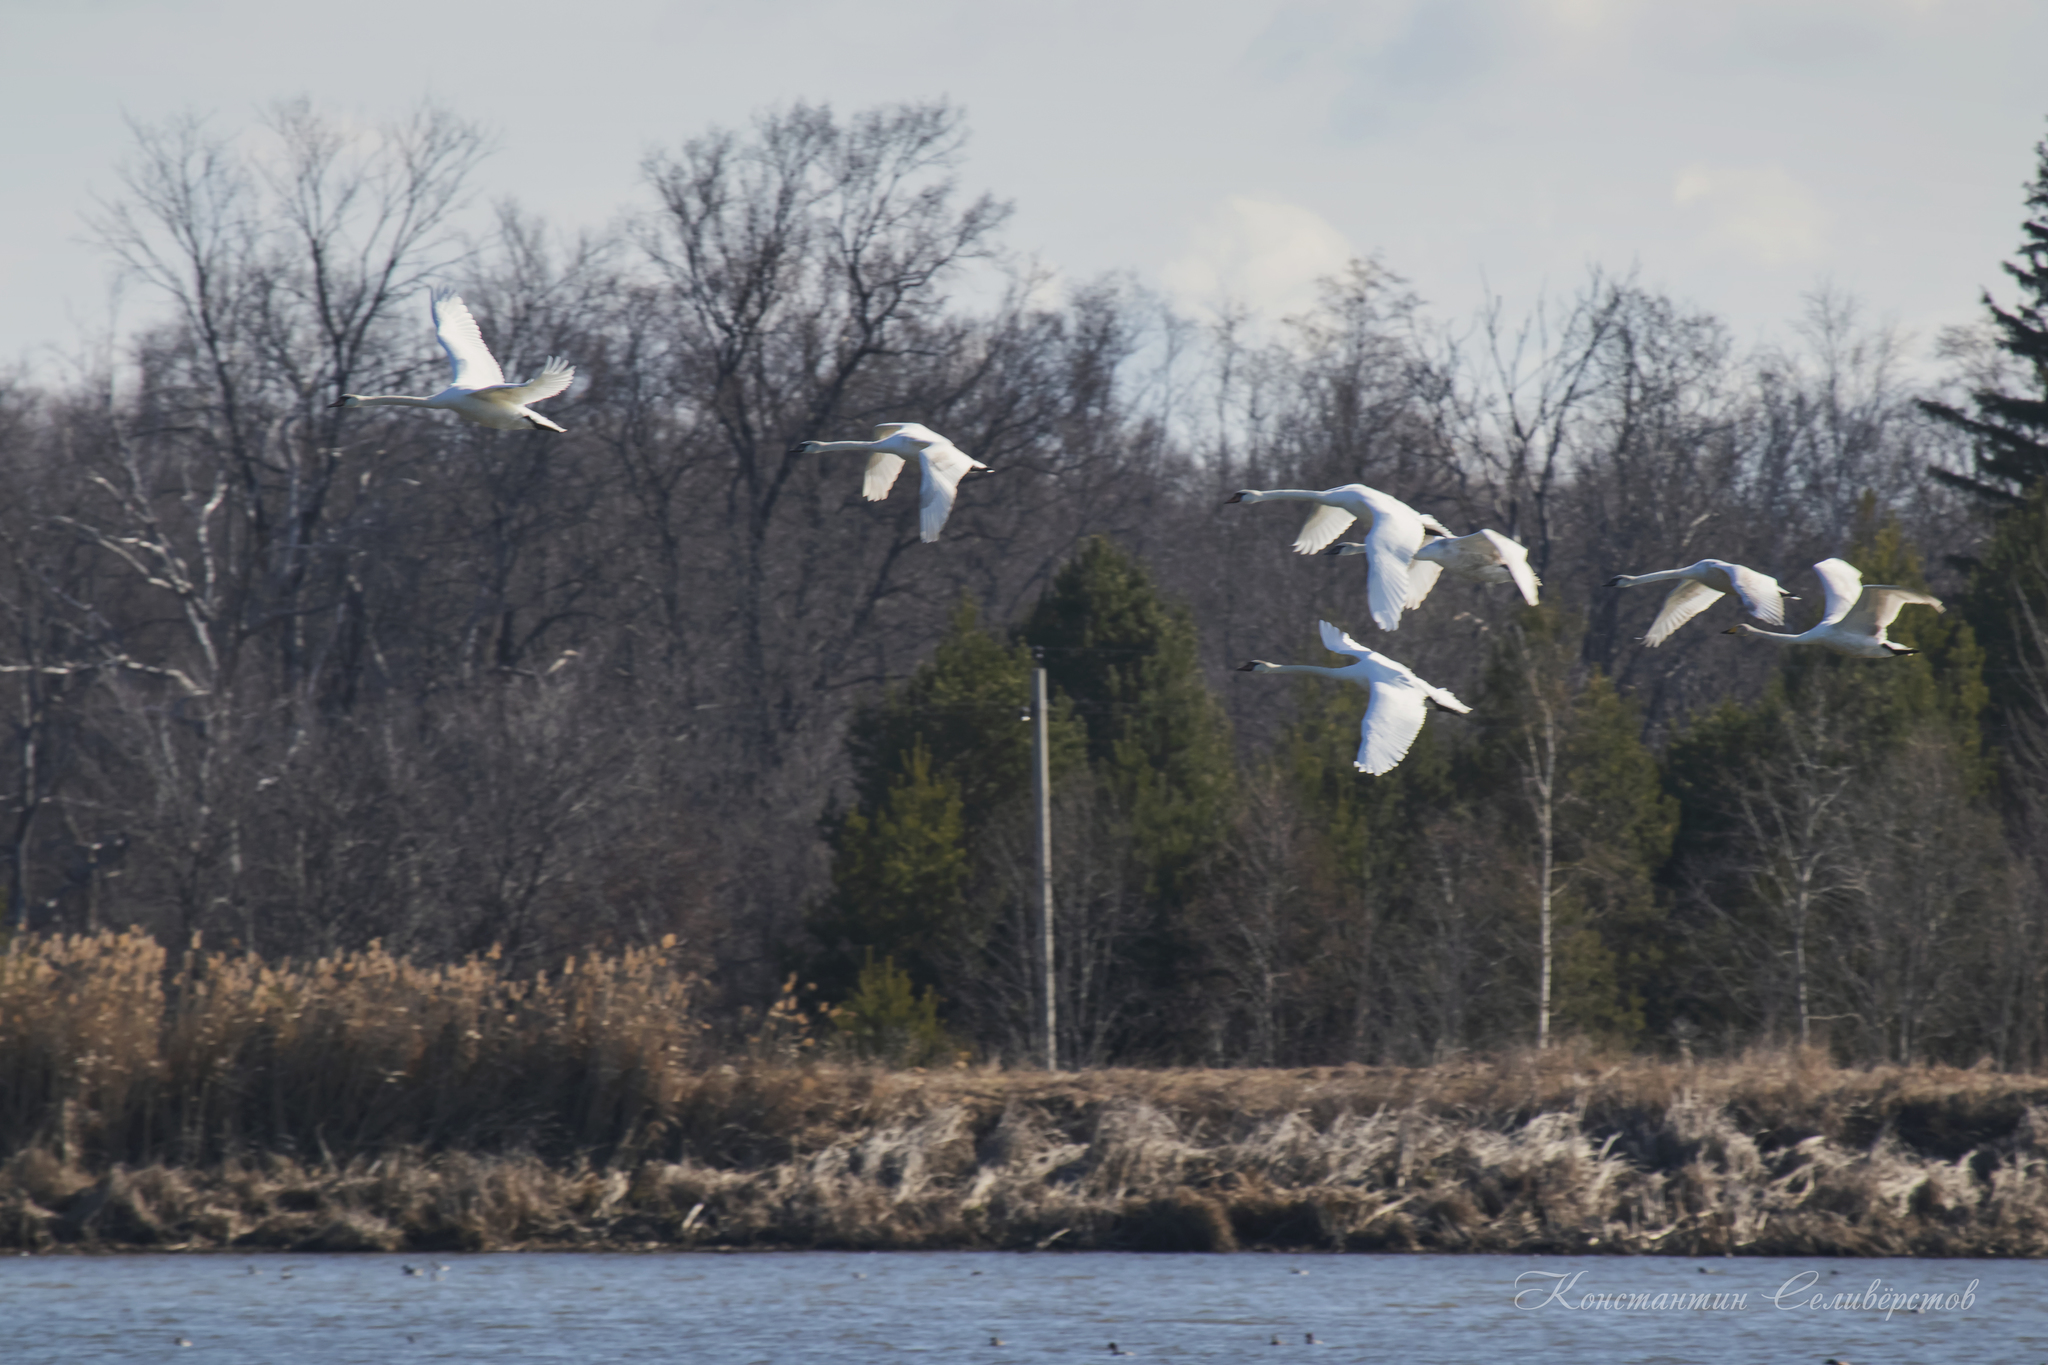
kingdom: Animalia
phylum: Chordata
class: Aves
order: Anseriformes
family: Anatidae
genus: Cygnus
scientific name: Cygnus cygnus
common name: Whooper swan
